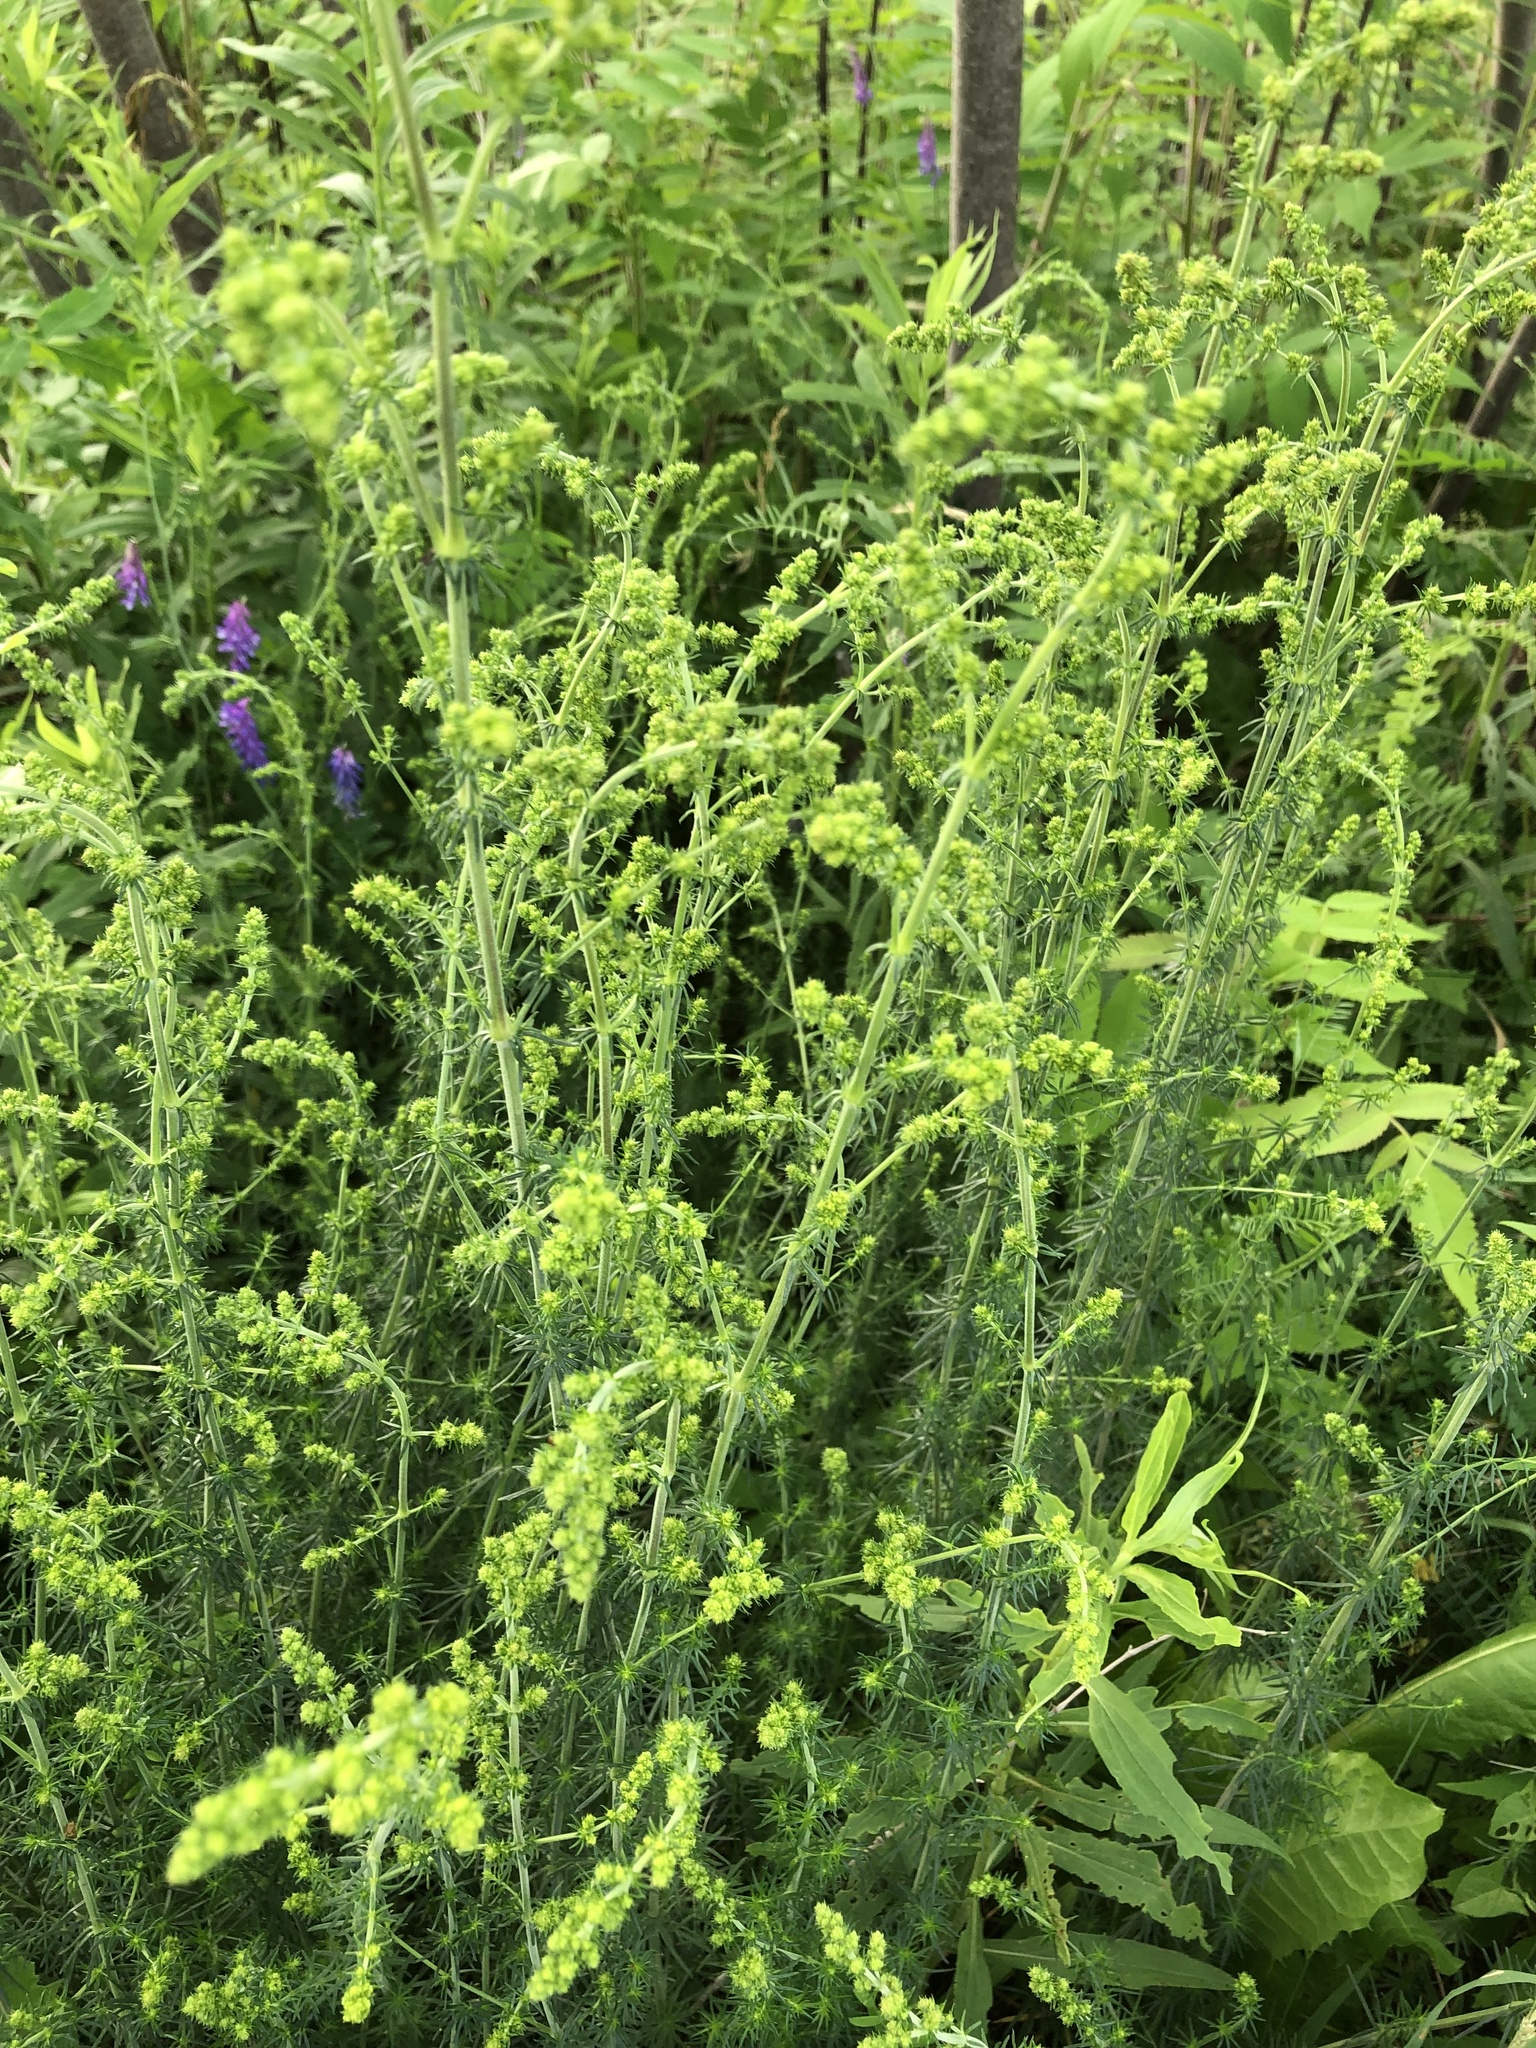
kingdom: Plantae
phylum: Tracheophyta
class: Magnoliopsida
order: Gentianales
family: Rubiaceae
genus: Galium
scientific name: Galium verum
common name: Lady's bedstraw
